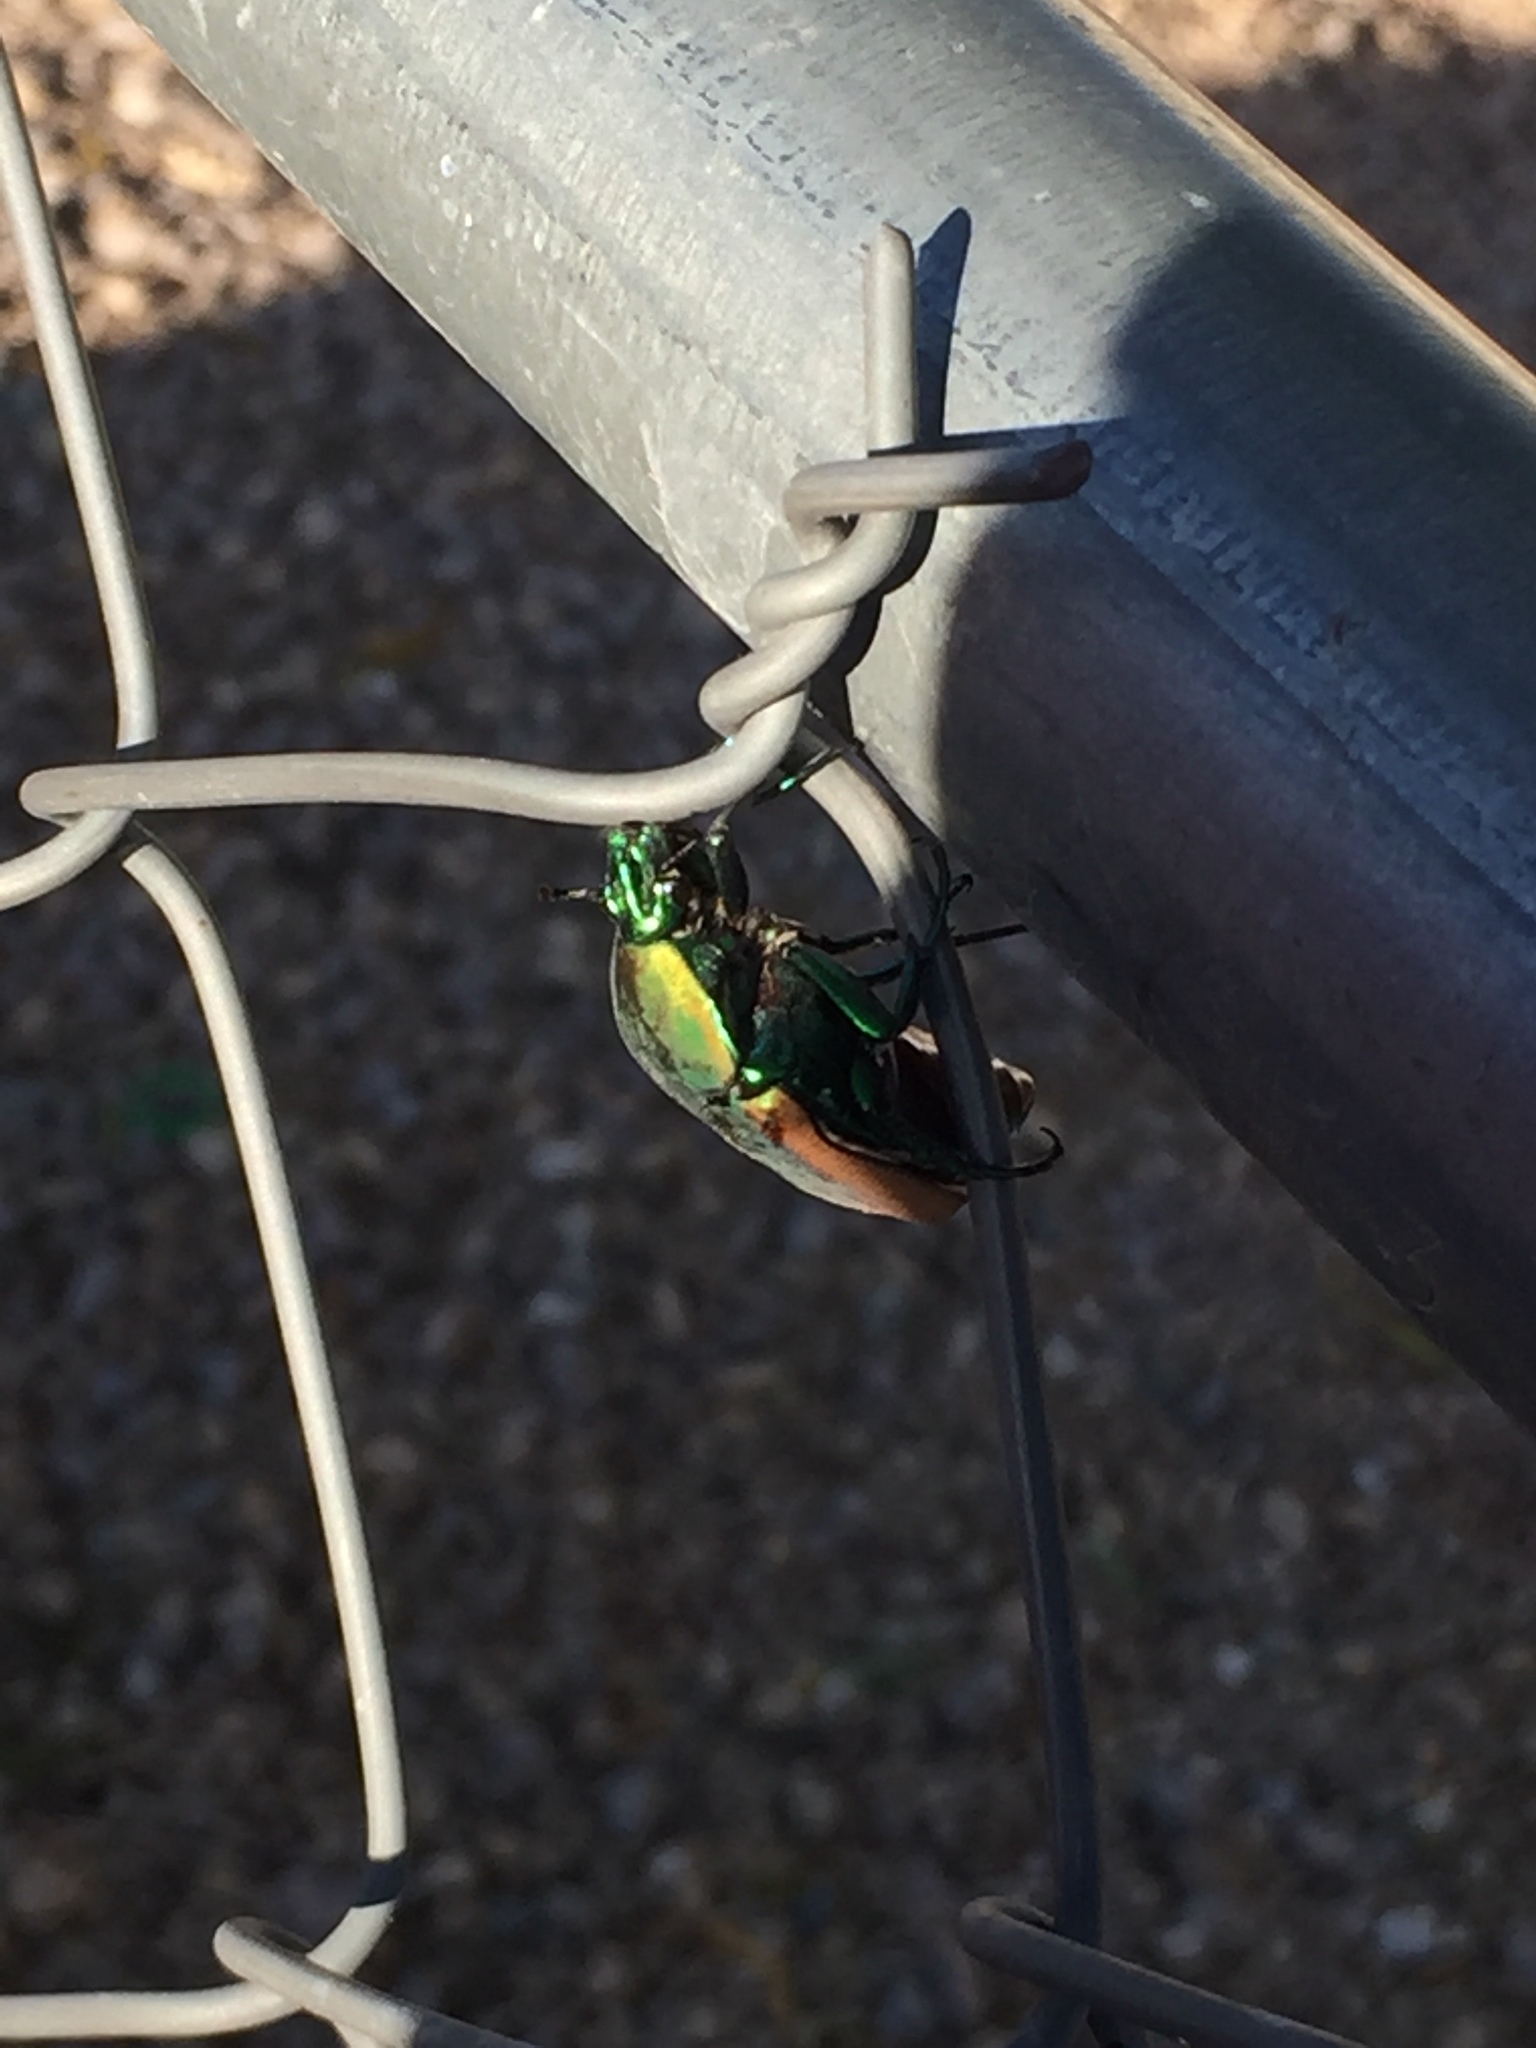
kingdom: Animalia
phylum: Arthropoda
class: Insecta
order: Coleoptera
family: Scarabaeidae
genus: Cotinis
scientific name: Cotinis mutabilis
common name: Figeater beetle
